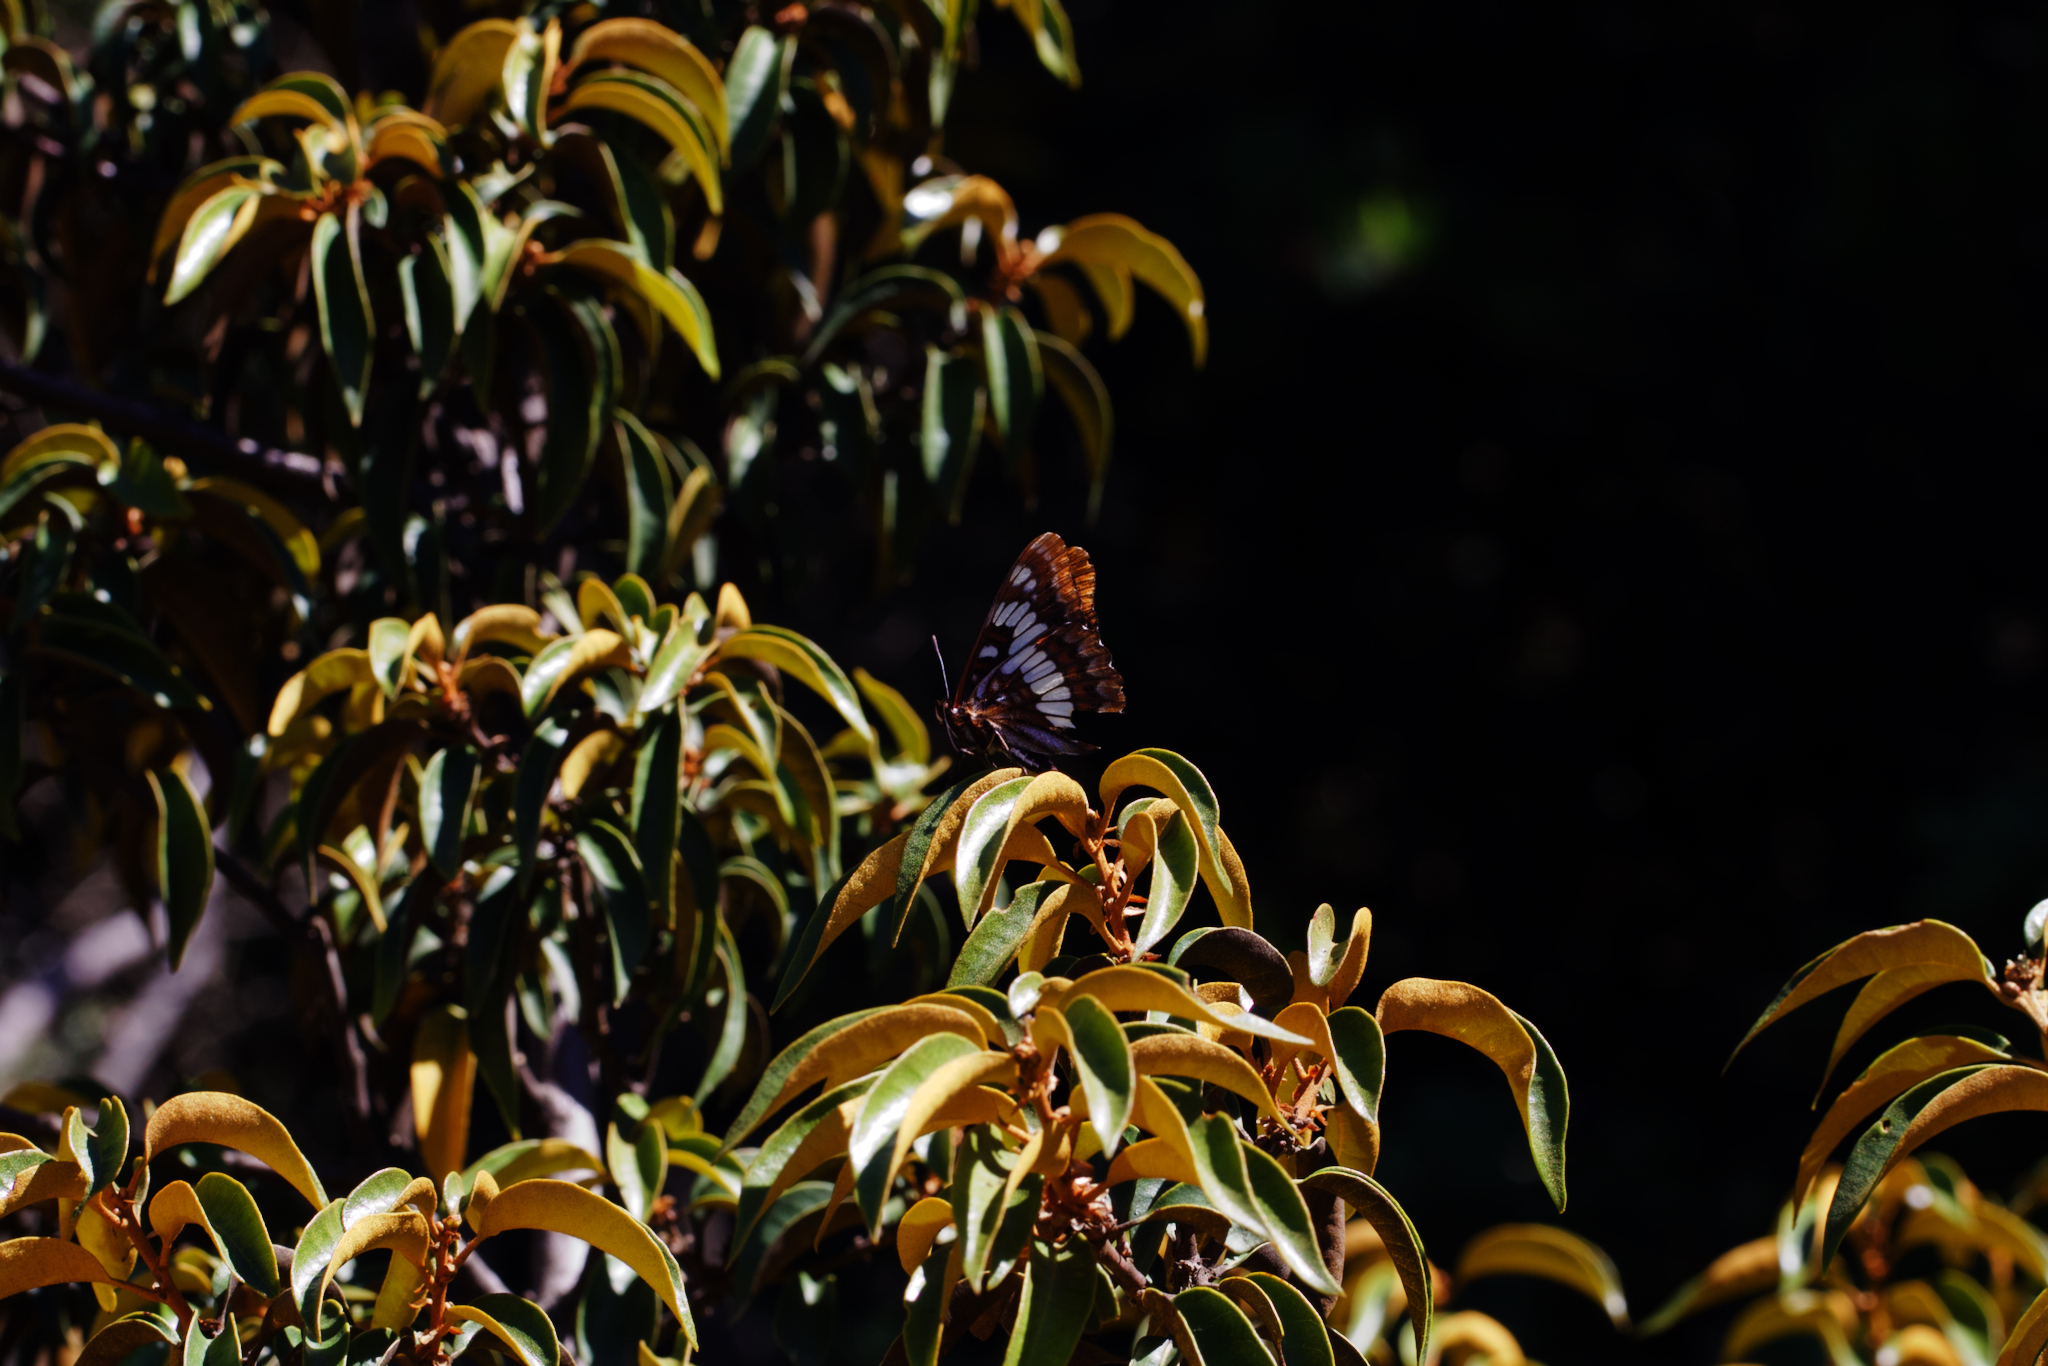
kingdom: Plantae
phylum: Tracheophyta
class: Magnoliopsida
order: Fagales
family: Fagaceae
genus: Chrysolepis
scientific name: Chrysolepis chrysophylla
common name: Giant chinquapin
